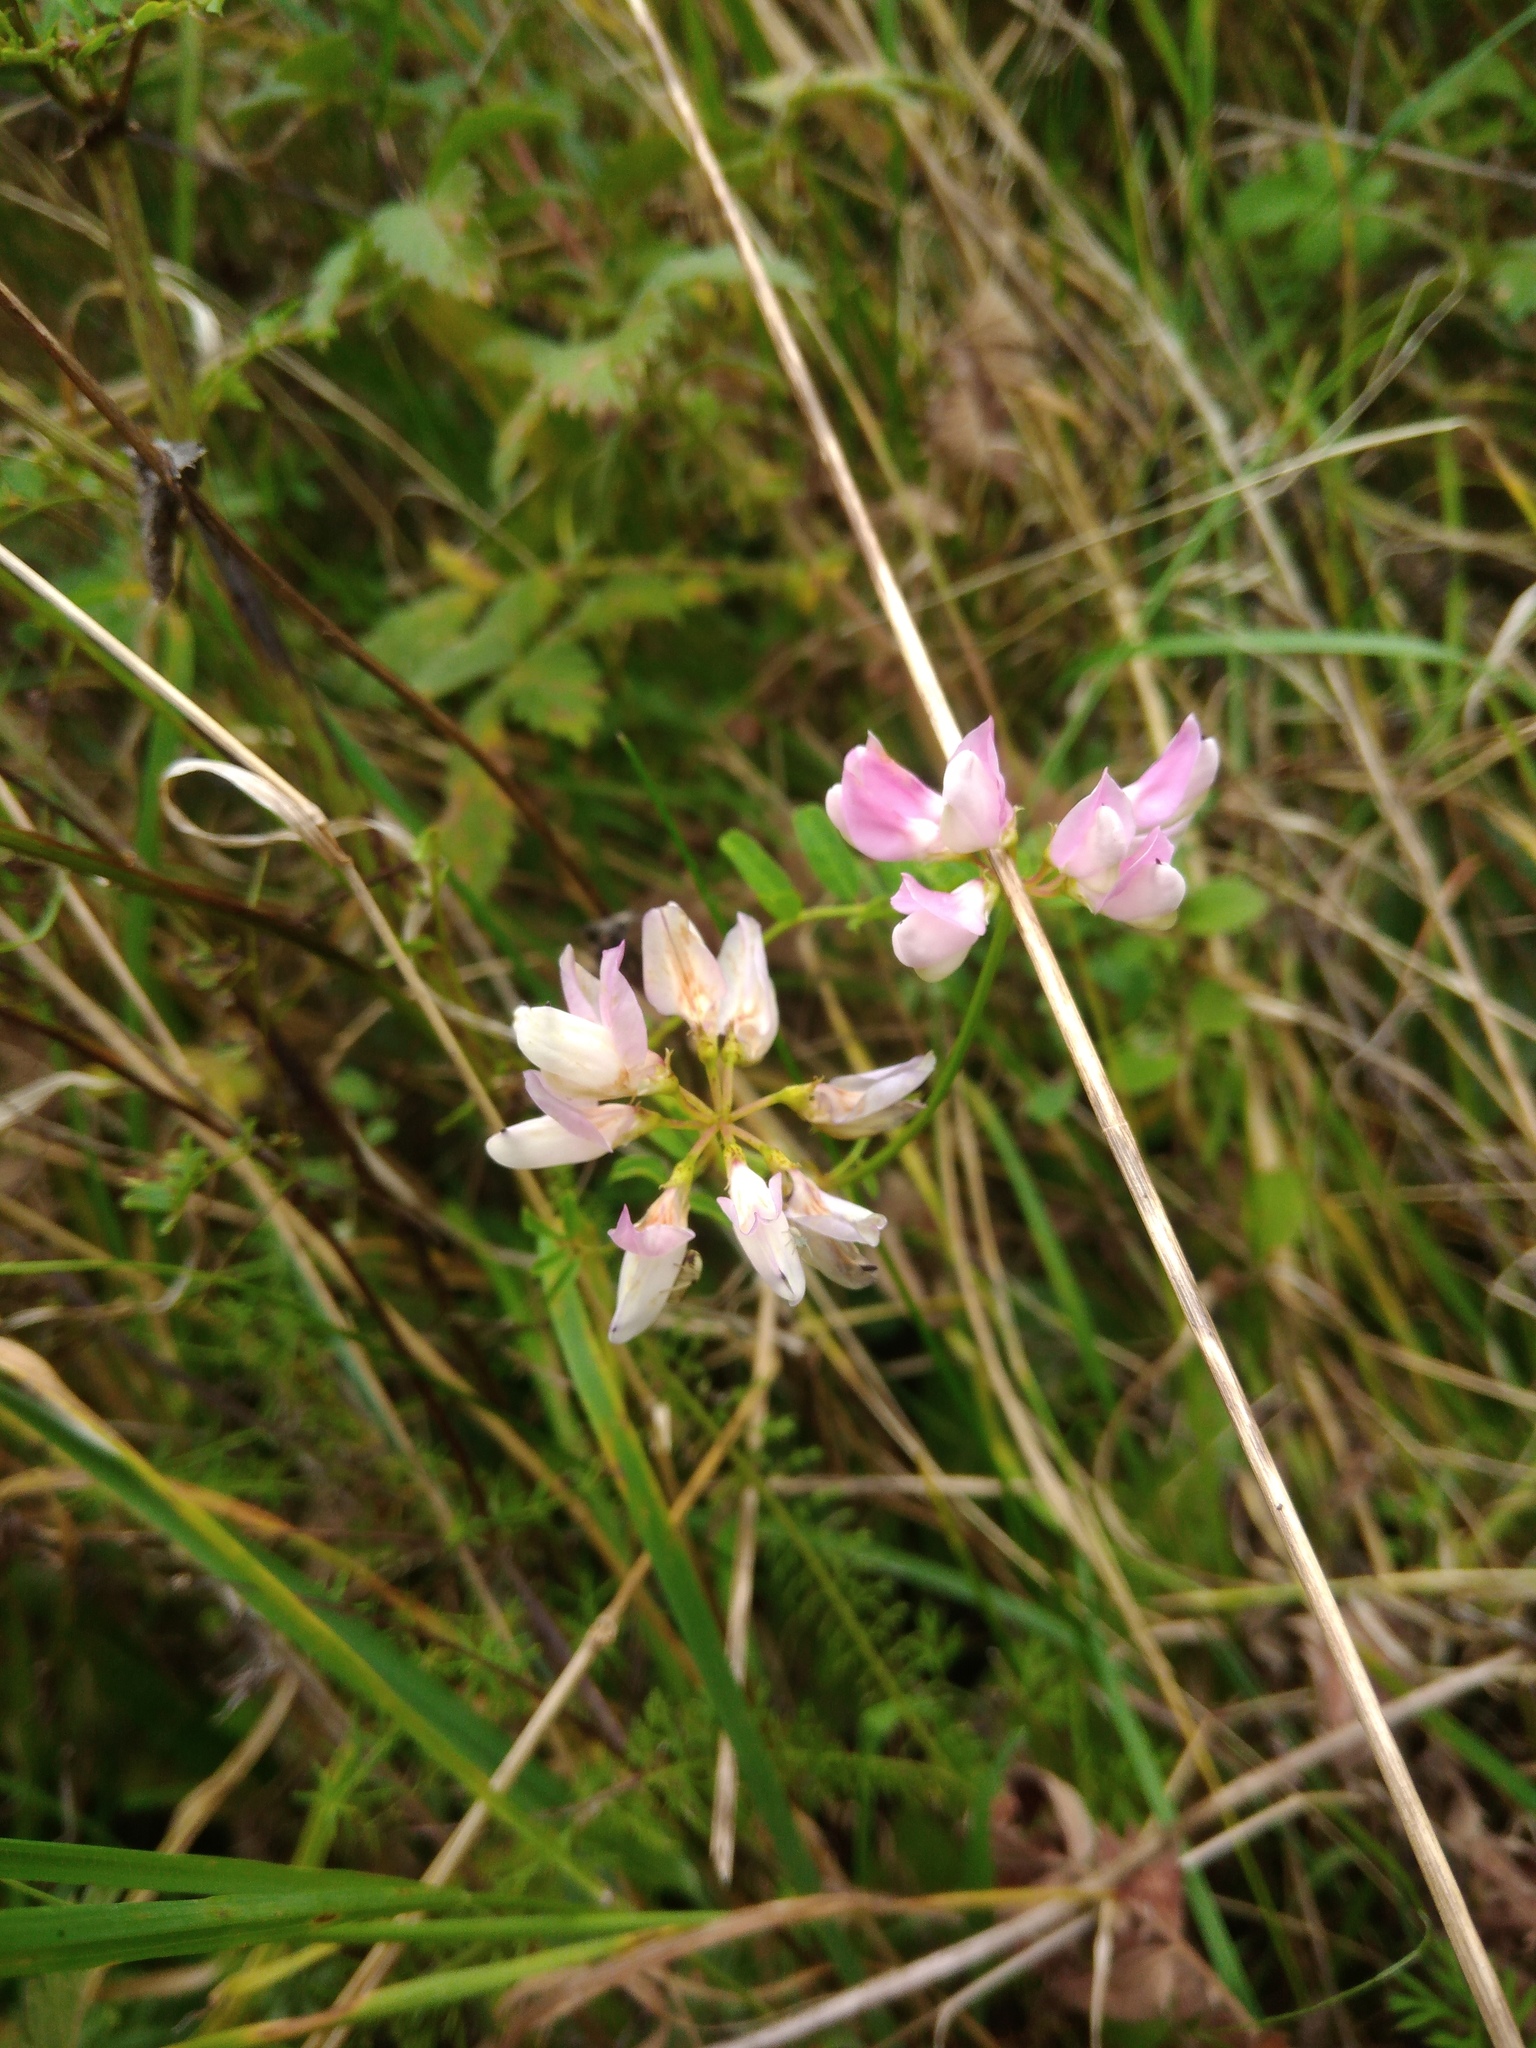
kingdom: Plantae
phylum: Tracheophyta
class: Magnoliopsida
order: Fabales
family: Fabaceae
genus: Coronilla
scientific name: Coronilla varia
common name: Crownvetch
